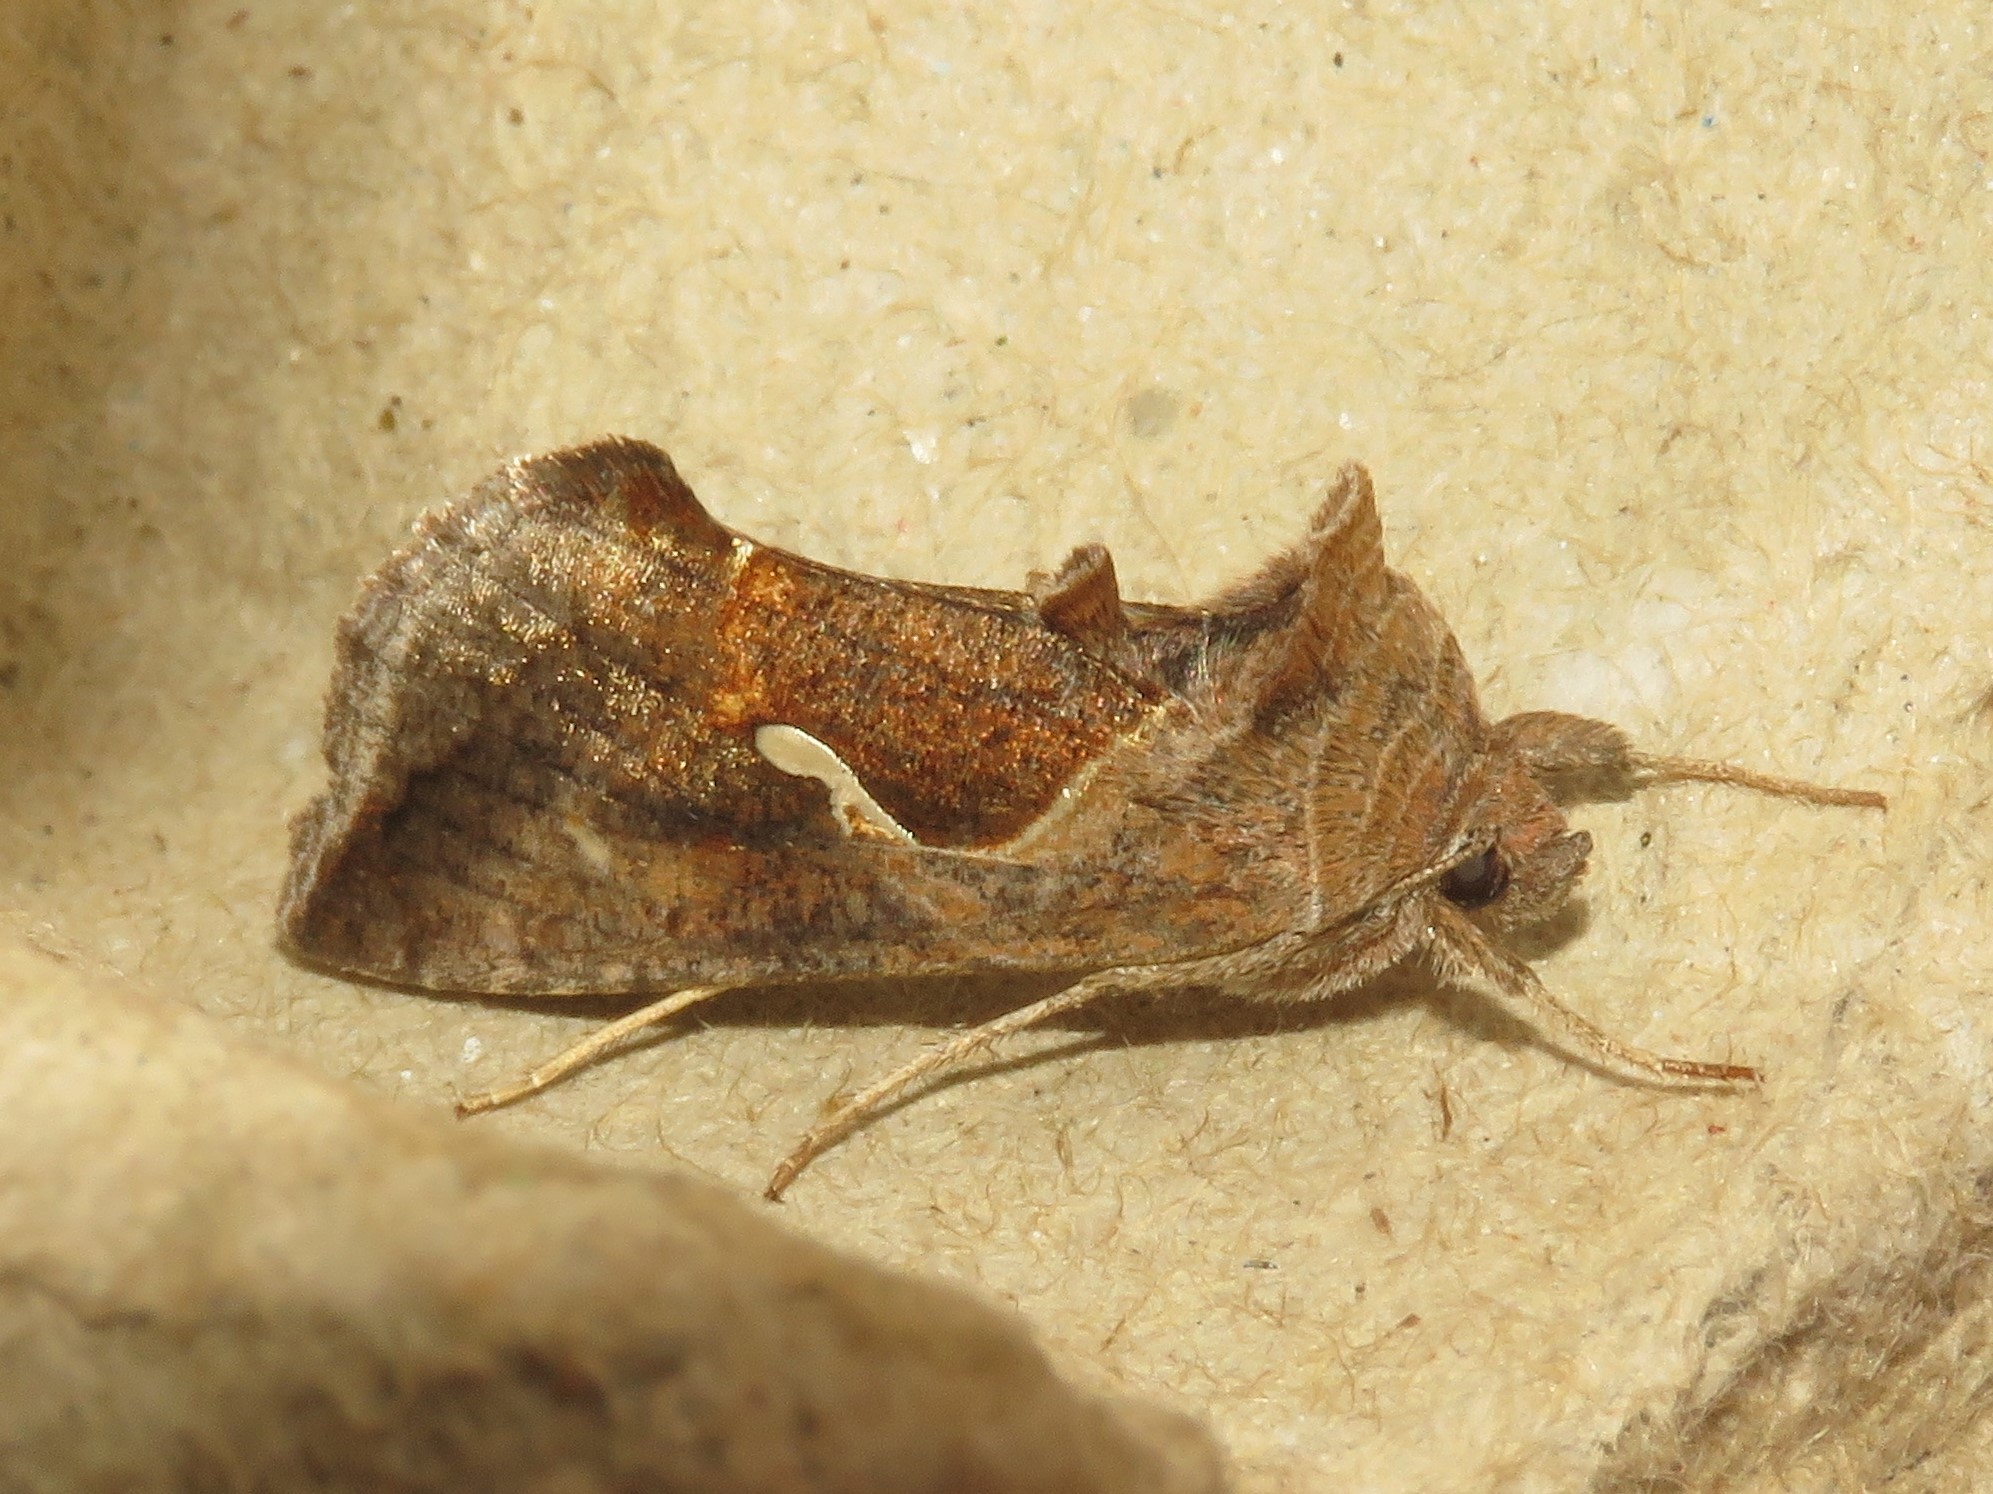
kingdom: Animalia
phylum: Arthropoda
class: Insecta
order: Lepidoptera
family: Noctuidae
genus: Anagrapha
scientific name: Anagrapha falcifera
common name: Celery looper
